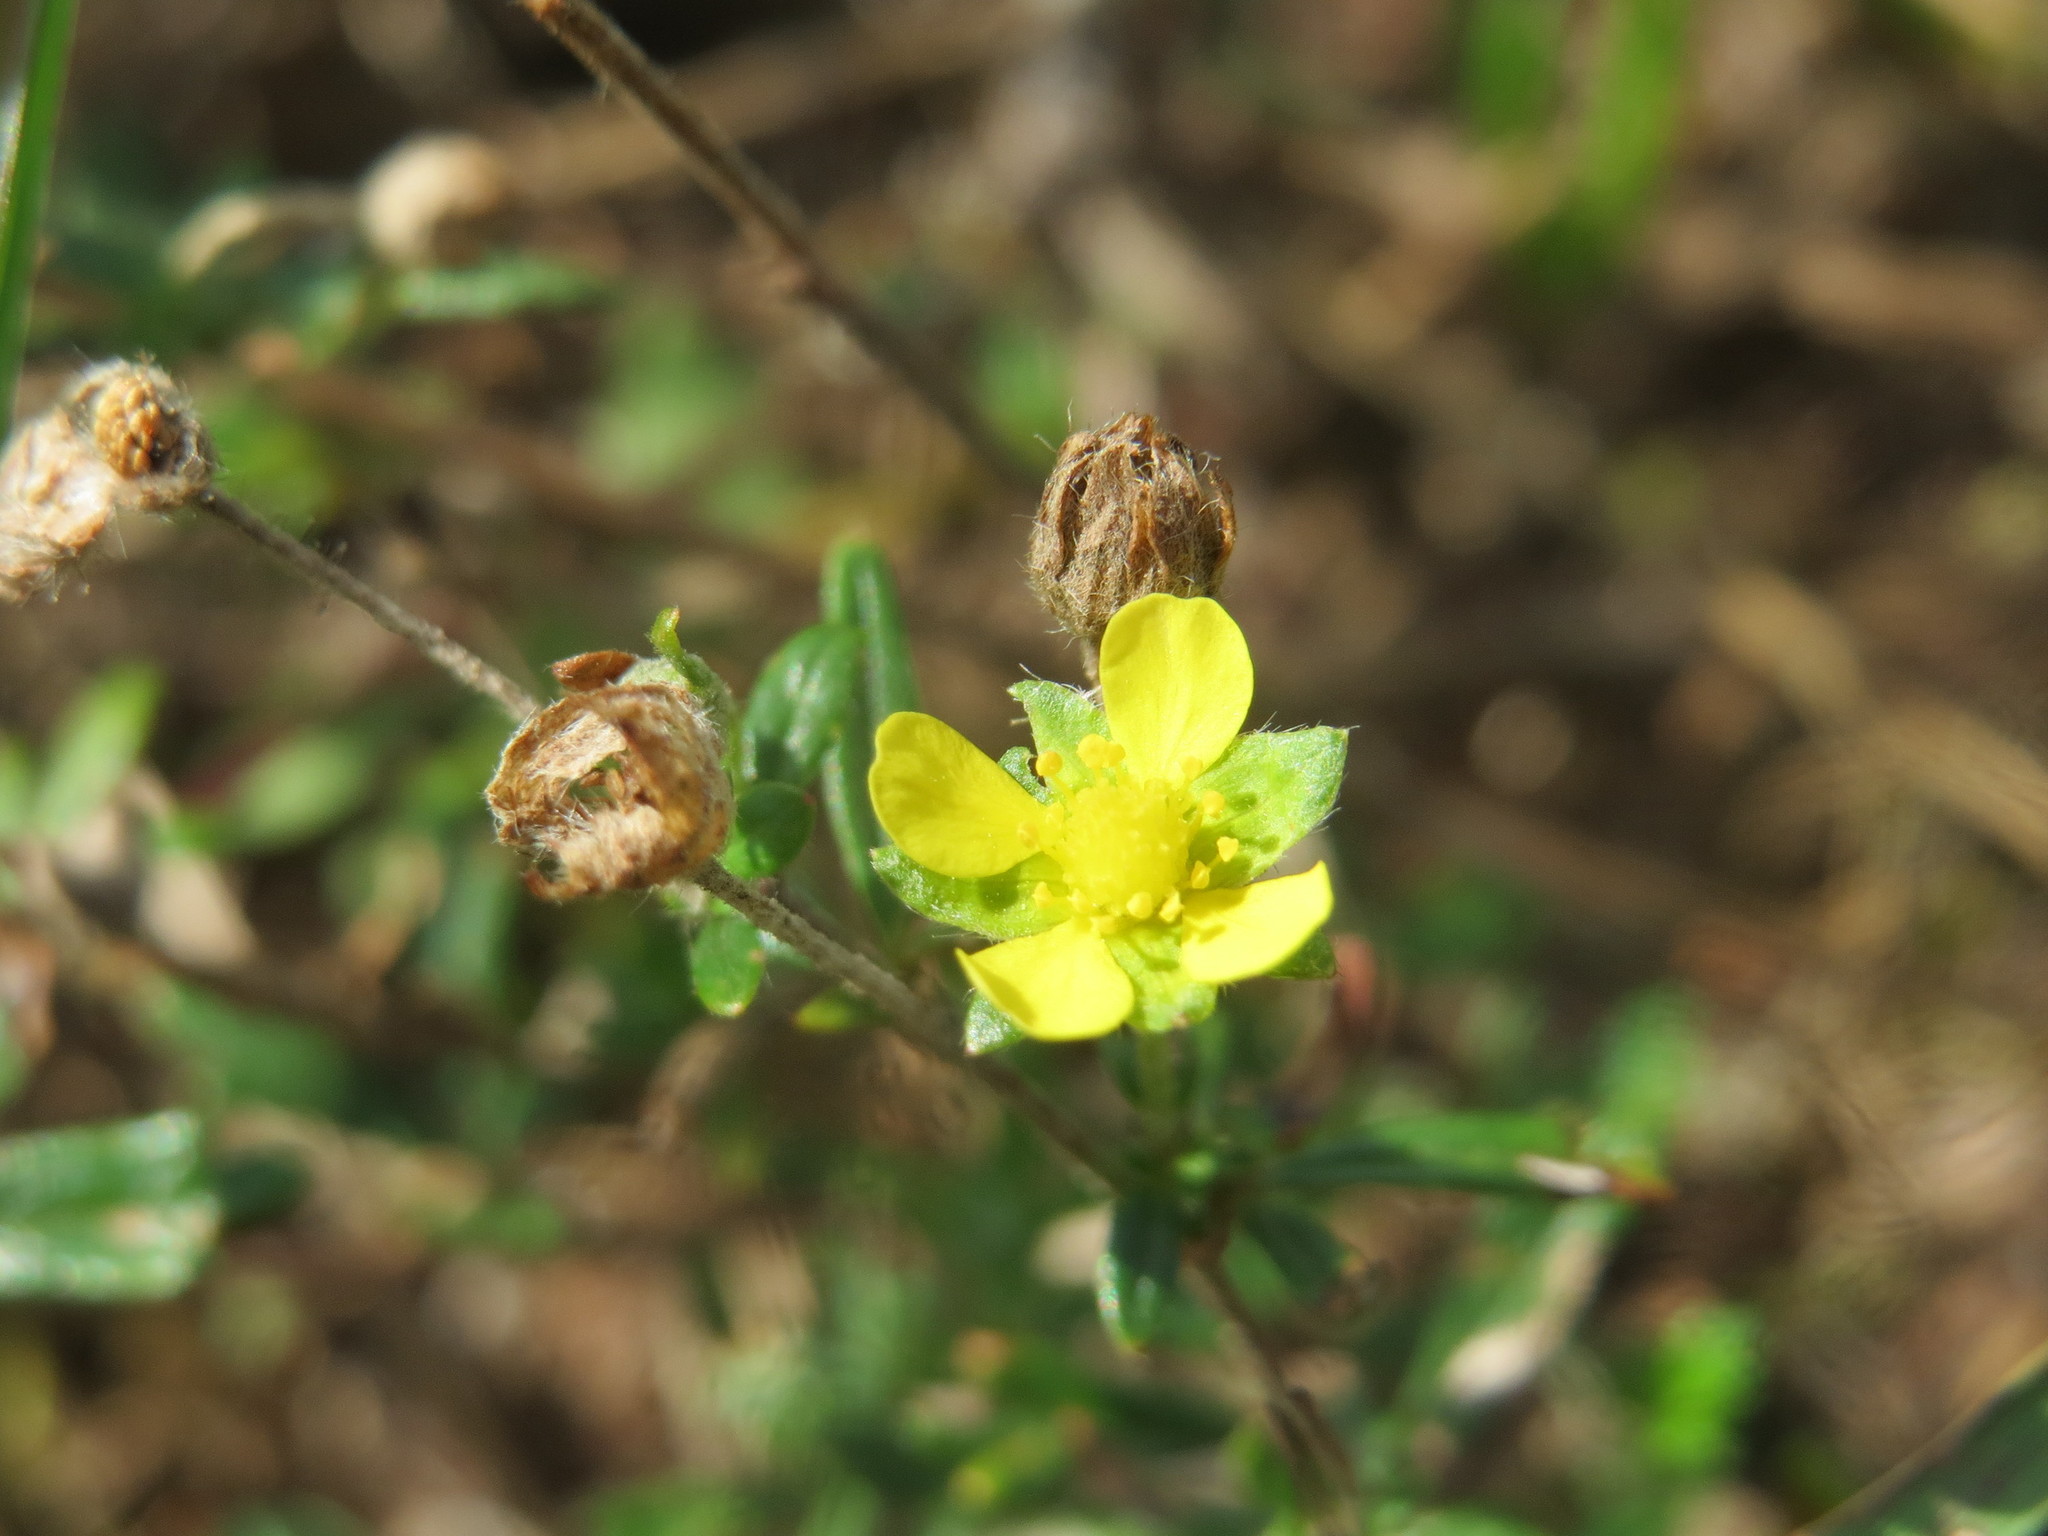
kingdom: Plantae
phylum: Tracheophyta
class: Magnoliopsida
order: Rosales
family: Rosaceae
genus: Potentilla
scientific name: Potentilla argentea
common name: Hoary cinquefoil
